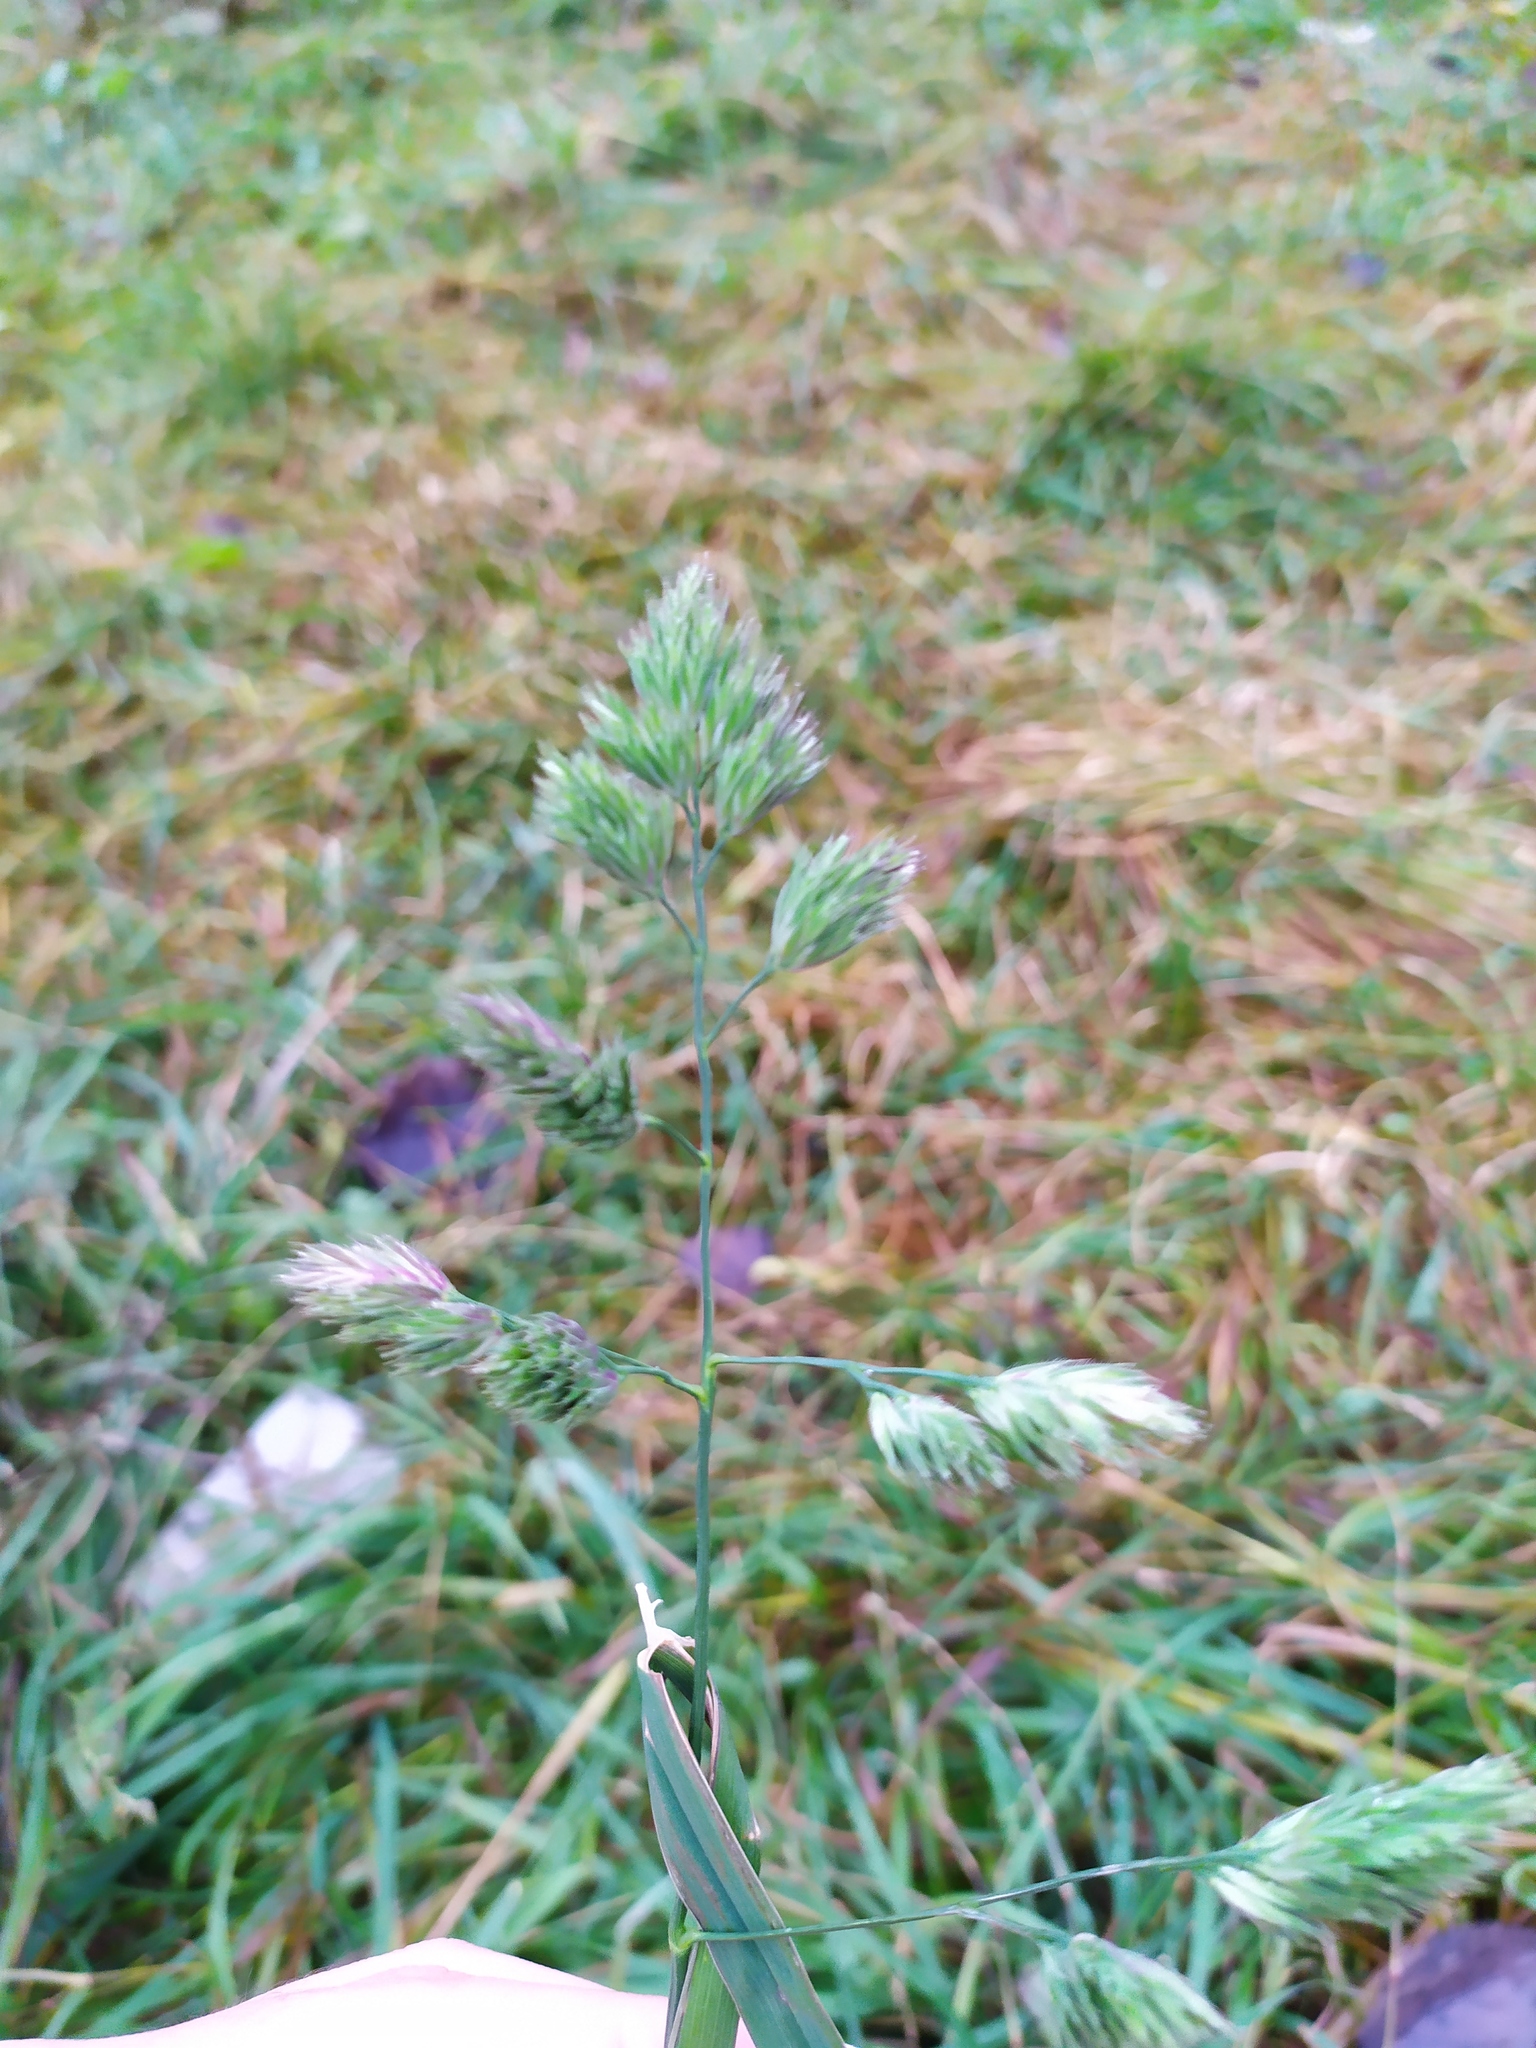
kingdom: Plantae
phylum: Tracheophyta
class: Liliopsida
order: Poales
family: Poaceae
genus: Dactylis
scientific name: Dactylis glomerata
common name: Orchardgrass
